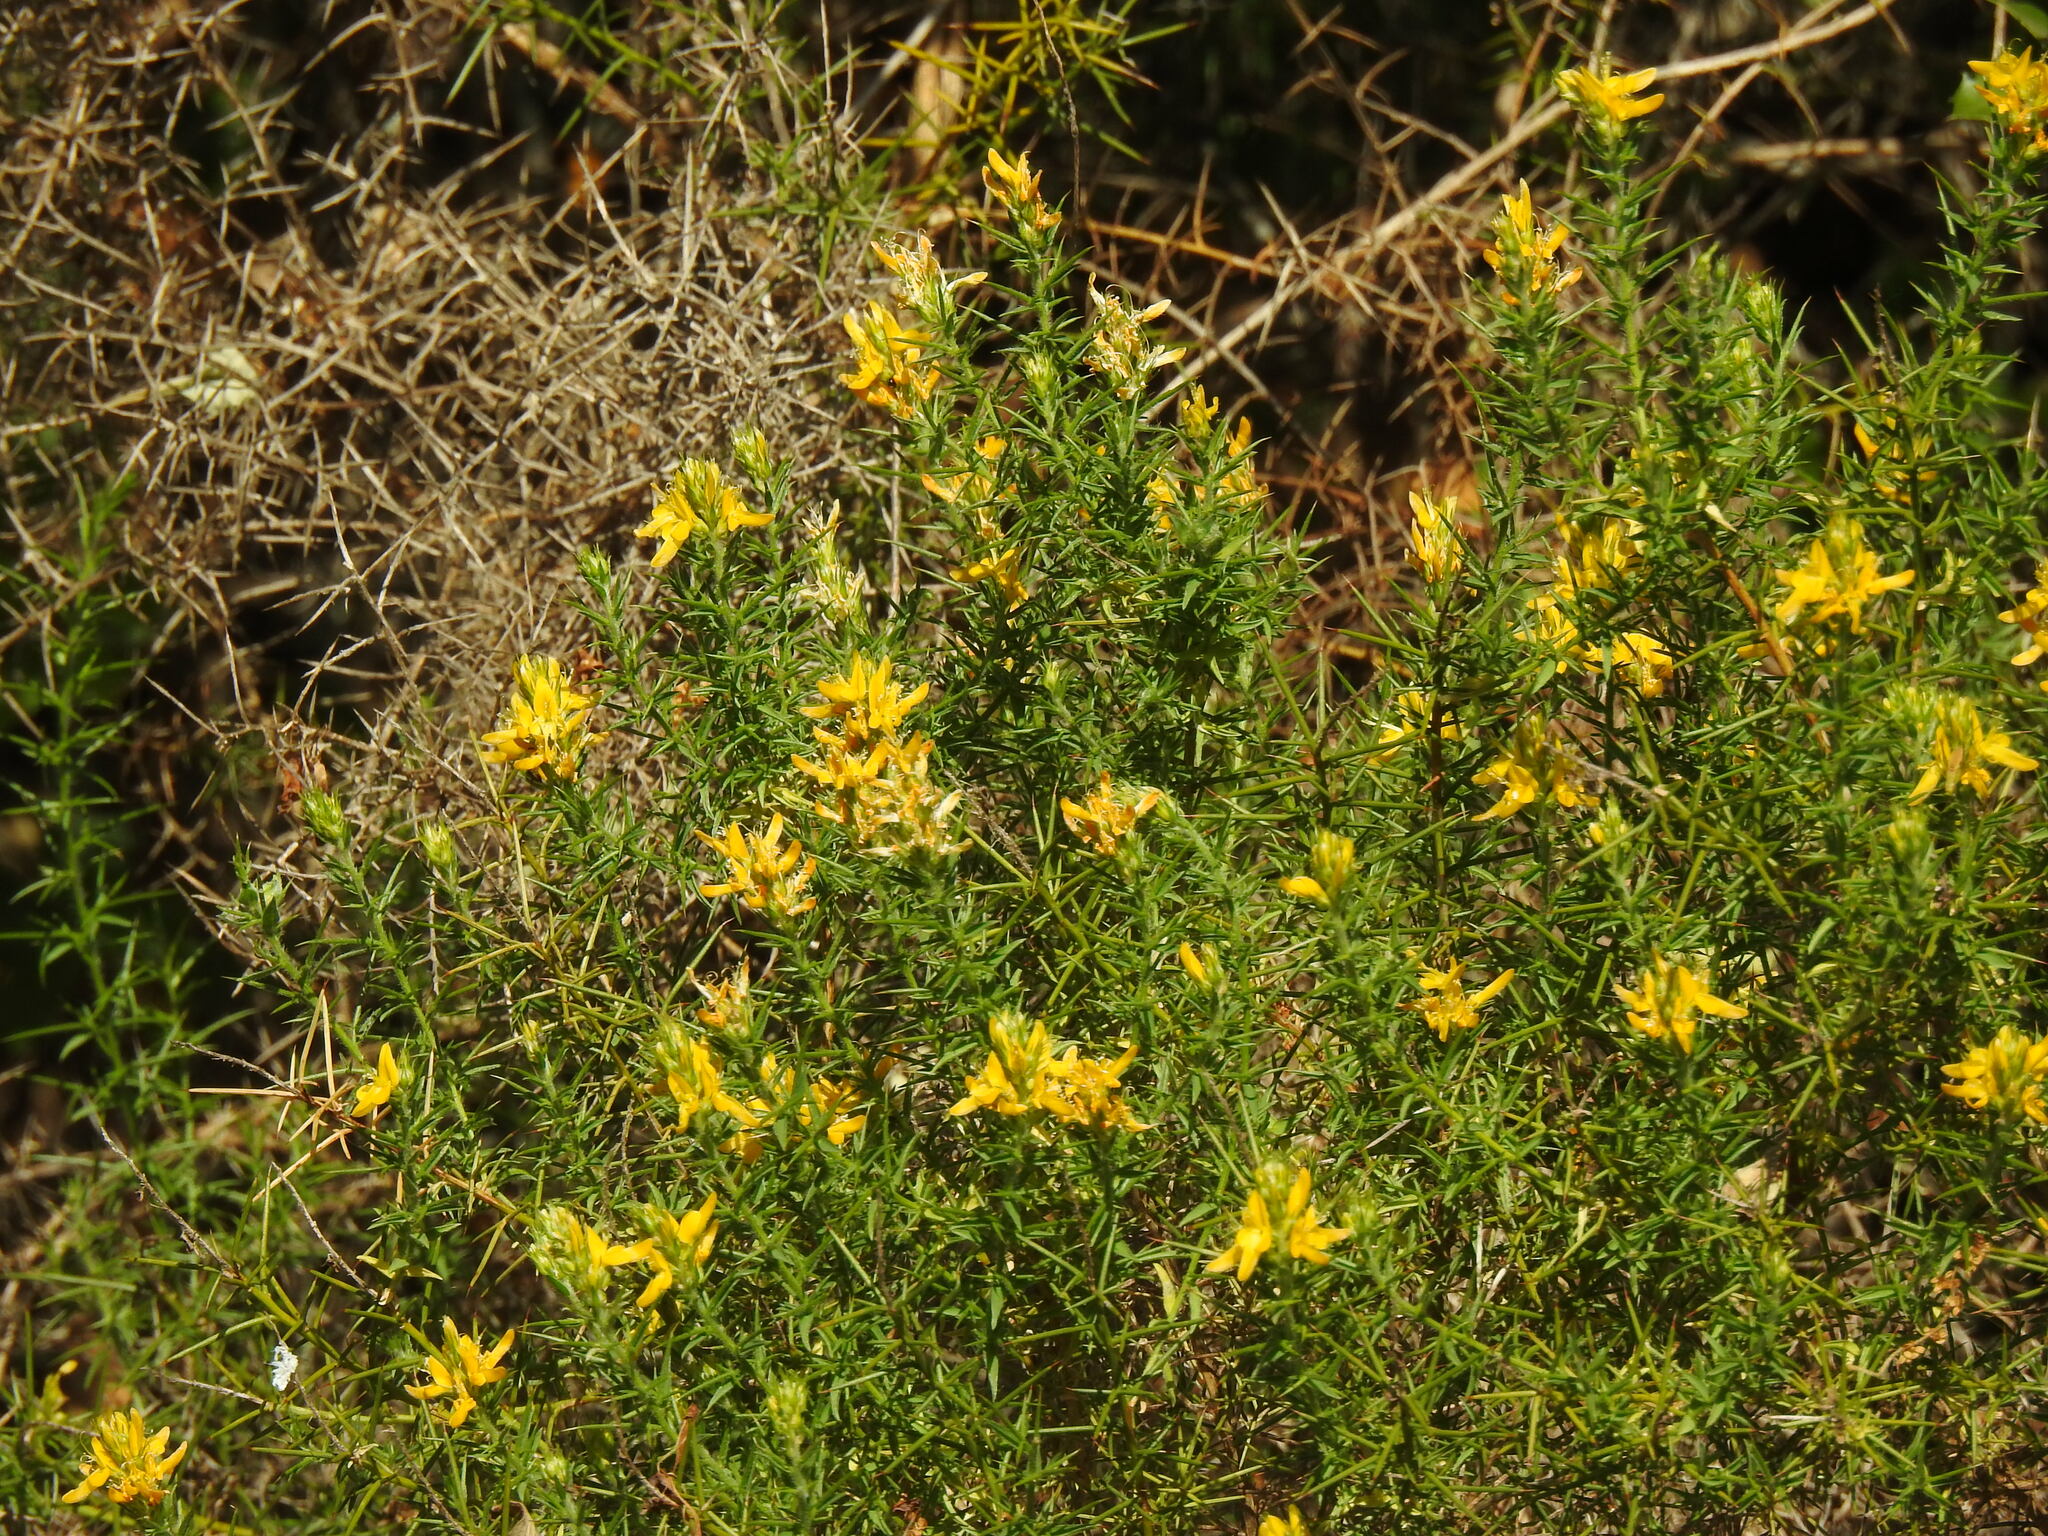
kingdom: Plantae
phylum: Tracheophyta
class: Magnoliopsida
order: Fabales
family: Fabaceae
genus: Genista
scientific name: Genista hirsuta
